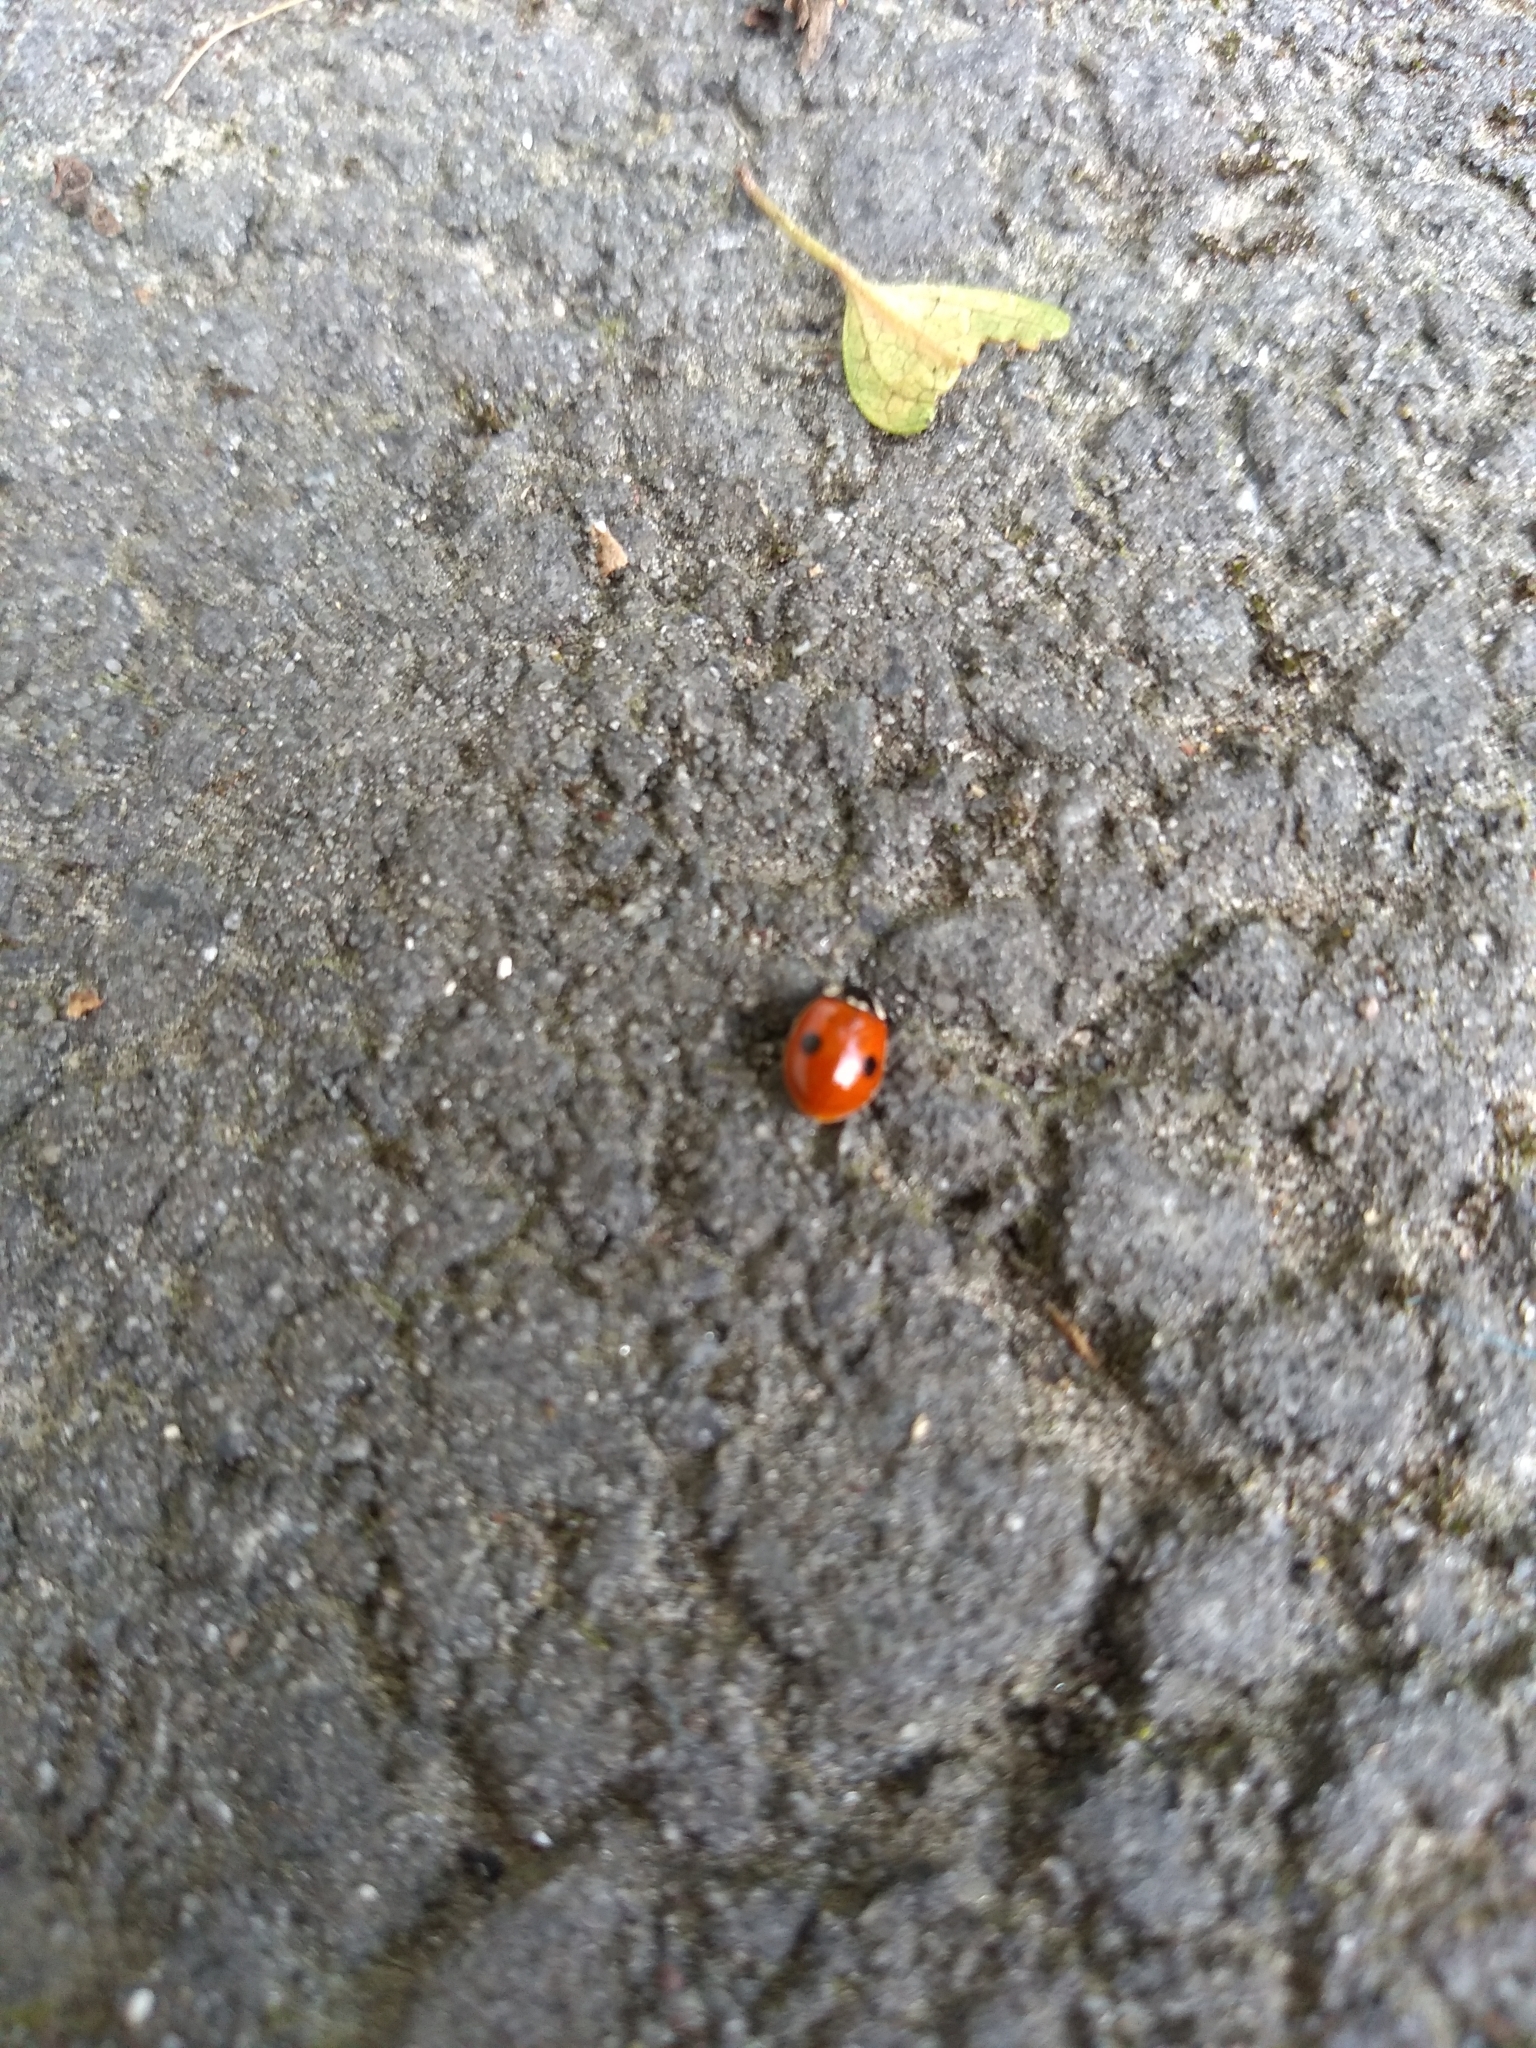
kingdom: Animalia
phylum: Arthropoda
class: Insecta
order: Coleoptera
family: Coccinellidae
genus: Adalia
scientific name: Adalia bipunctata
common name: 2-spot ladybird
